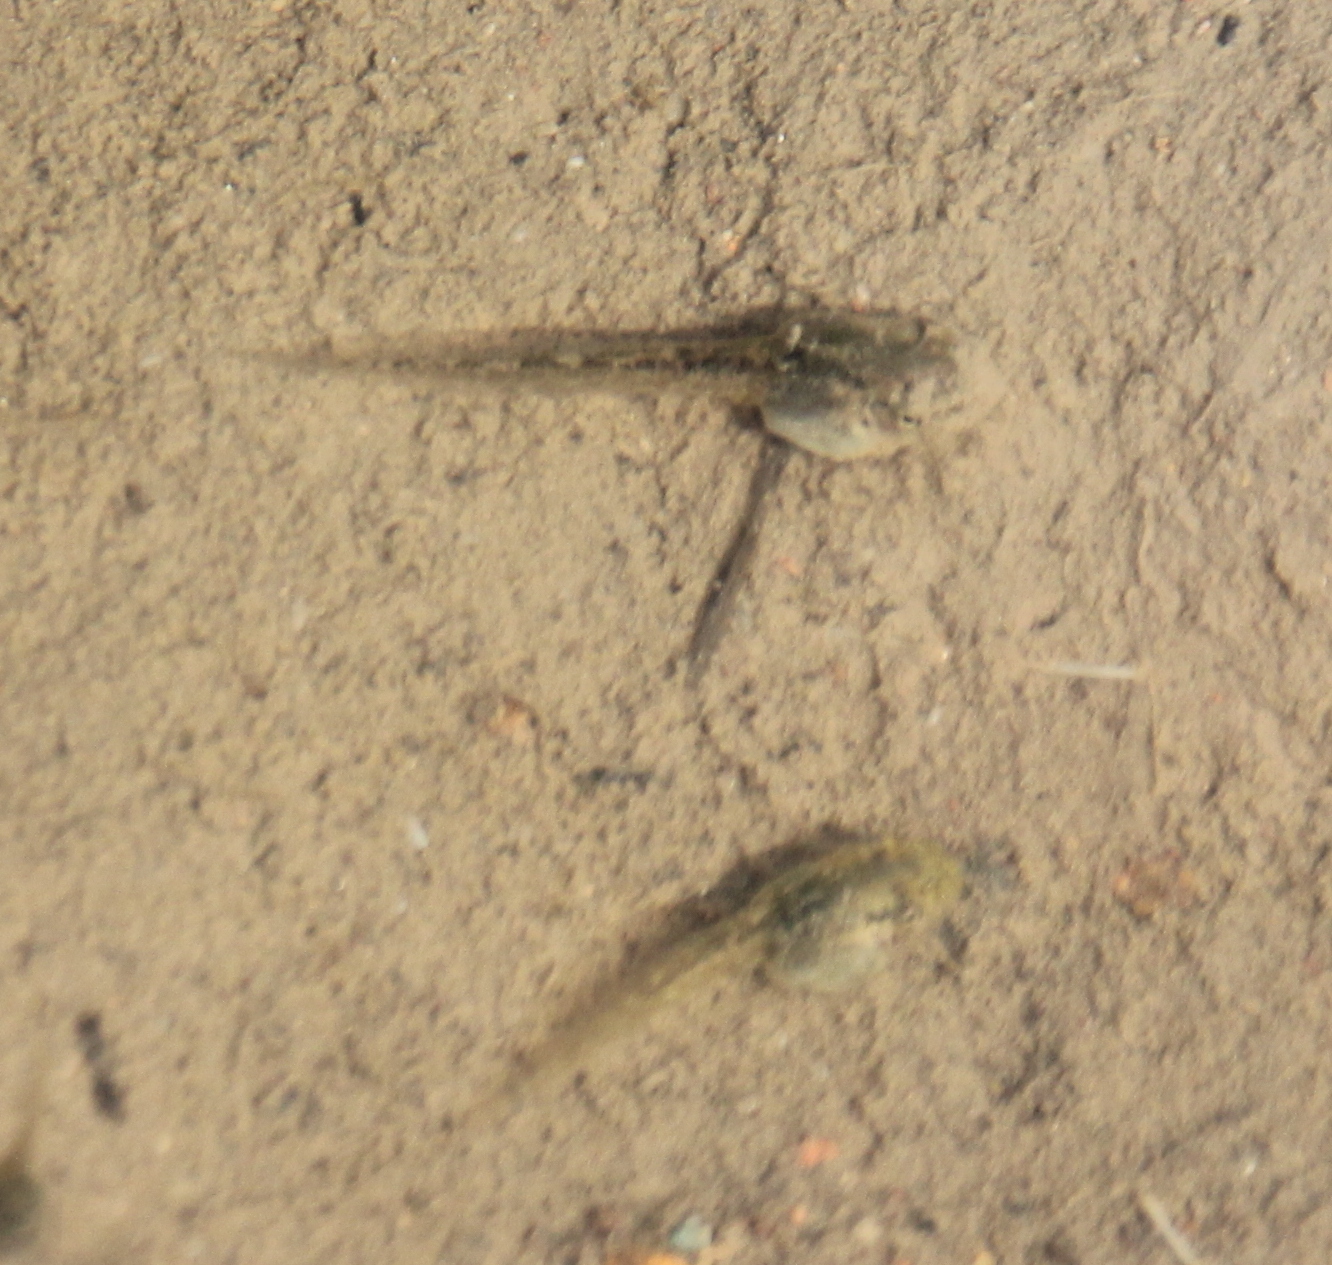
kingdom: Animalia
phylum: Chordata
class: Amphibia
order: Anura
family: Hylidae
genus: Pseudacris
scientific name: Pseudacris cadaverina
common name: California chorus frog
